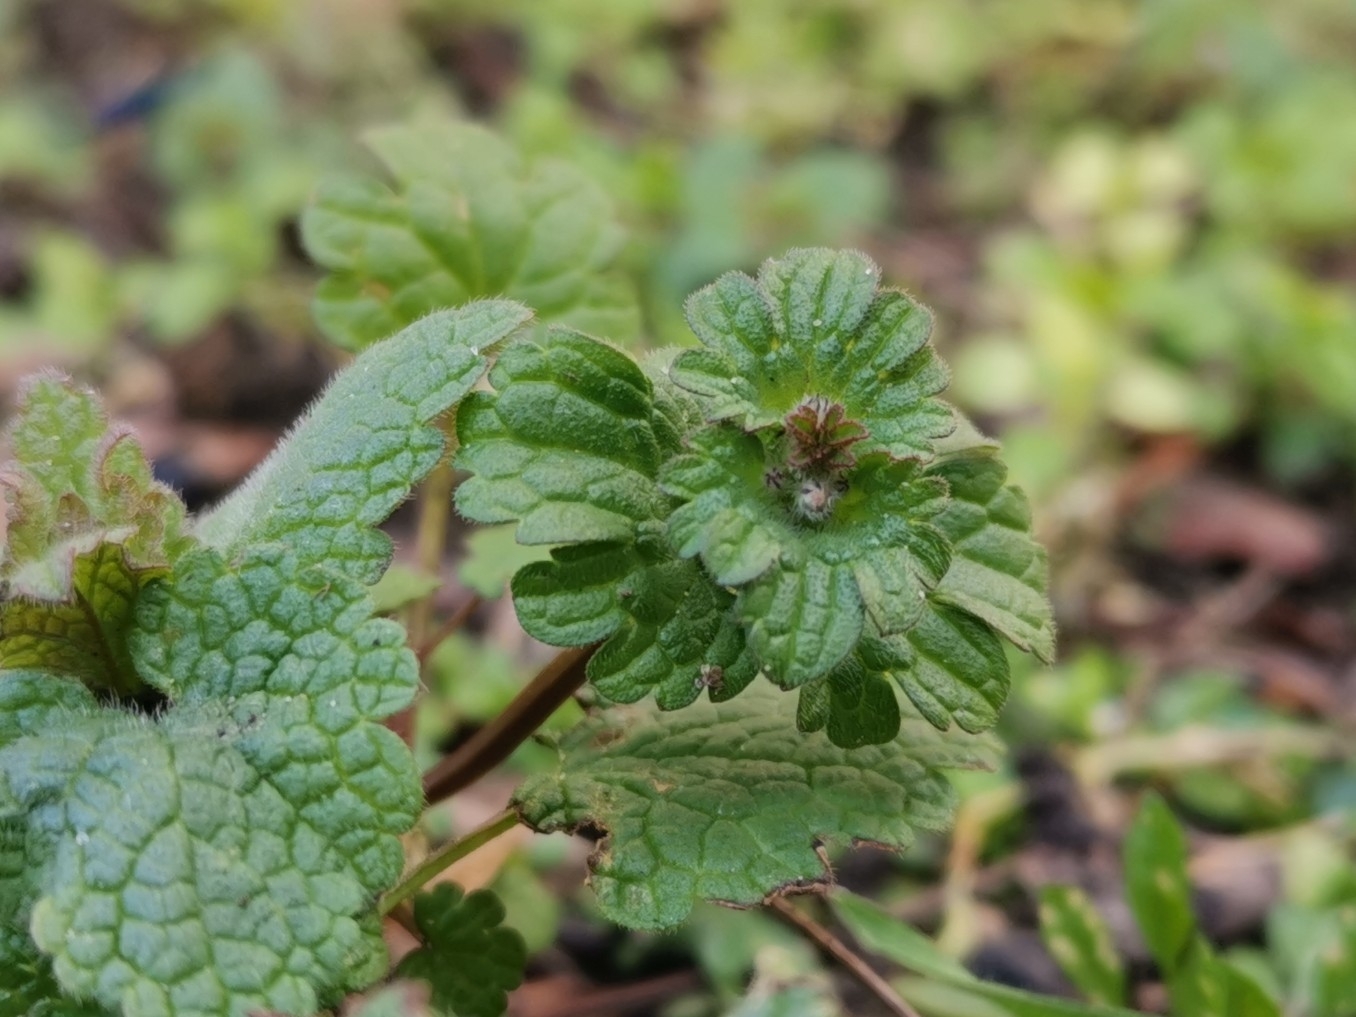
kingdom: Plantae
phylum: Tracheophyta
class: Magnoliopsida
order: Lamiales
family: Lamiaceae
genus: Lamium
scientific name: Lamium amplexicaule
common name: Henbit dead-nettle
